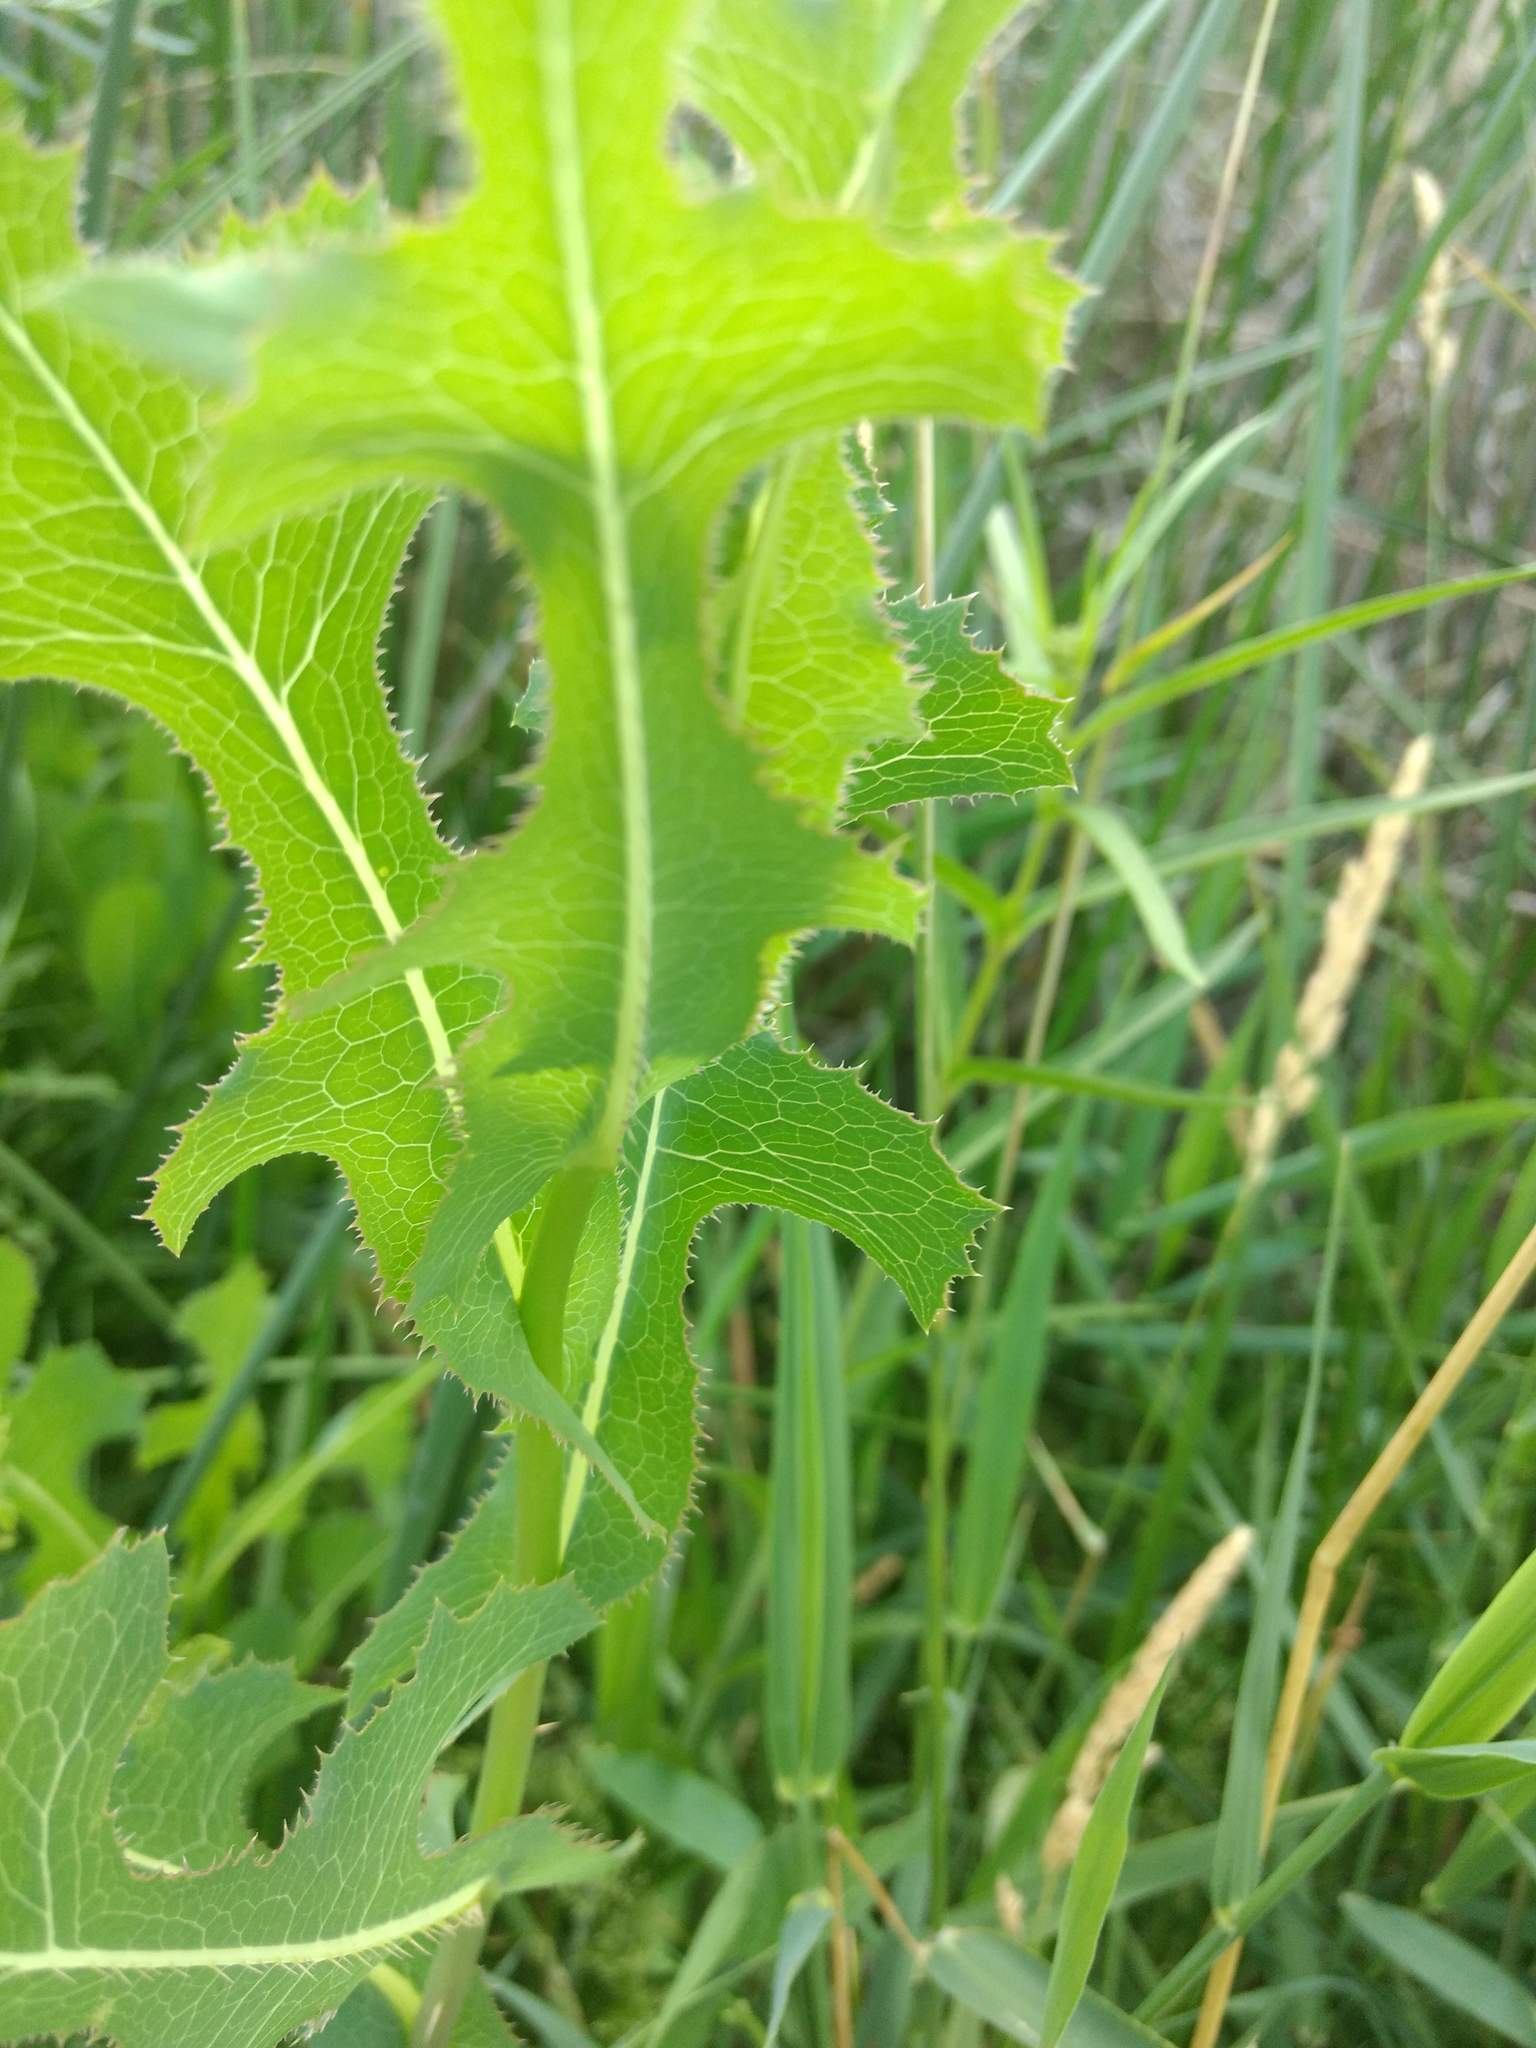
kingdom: Plantae
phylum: Tracheophyta
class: Magnoliopsida
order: Asterales
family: Asteraceae
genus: Lactuca
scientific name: Lactuca serriola
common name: Prickly lettuce
